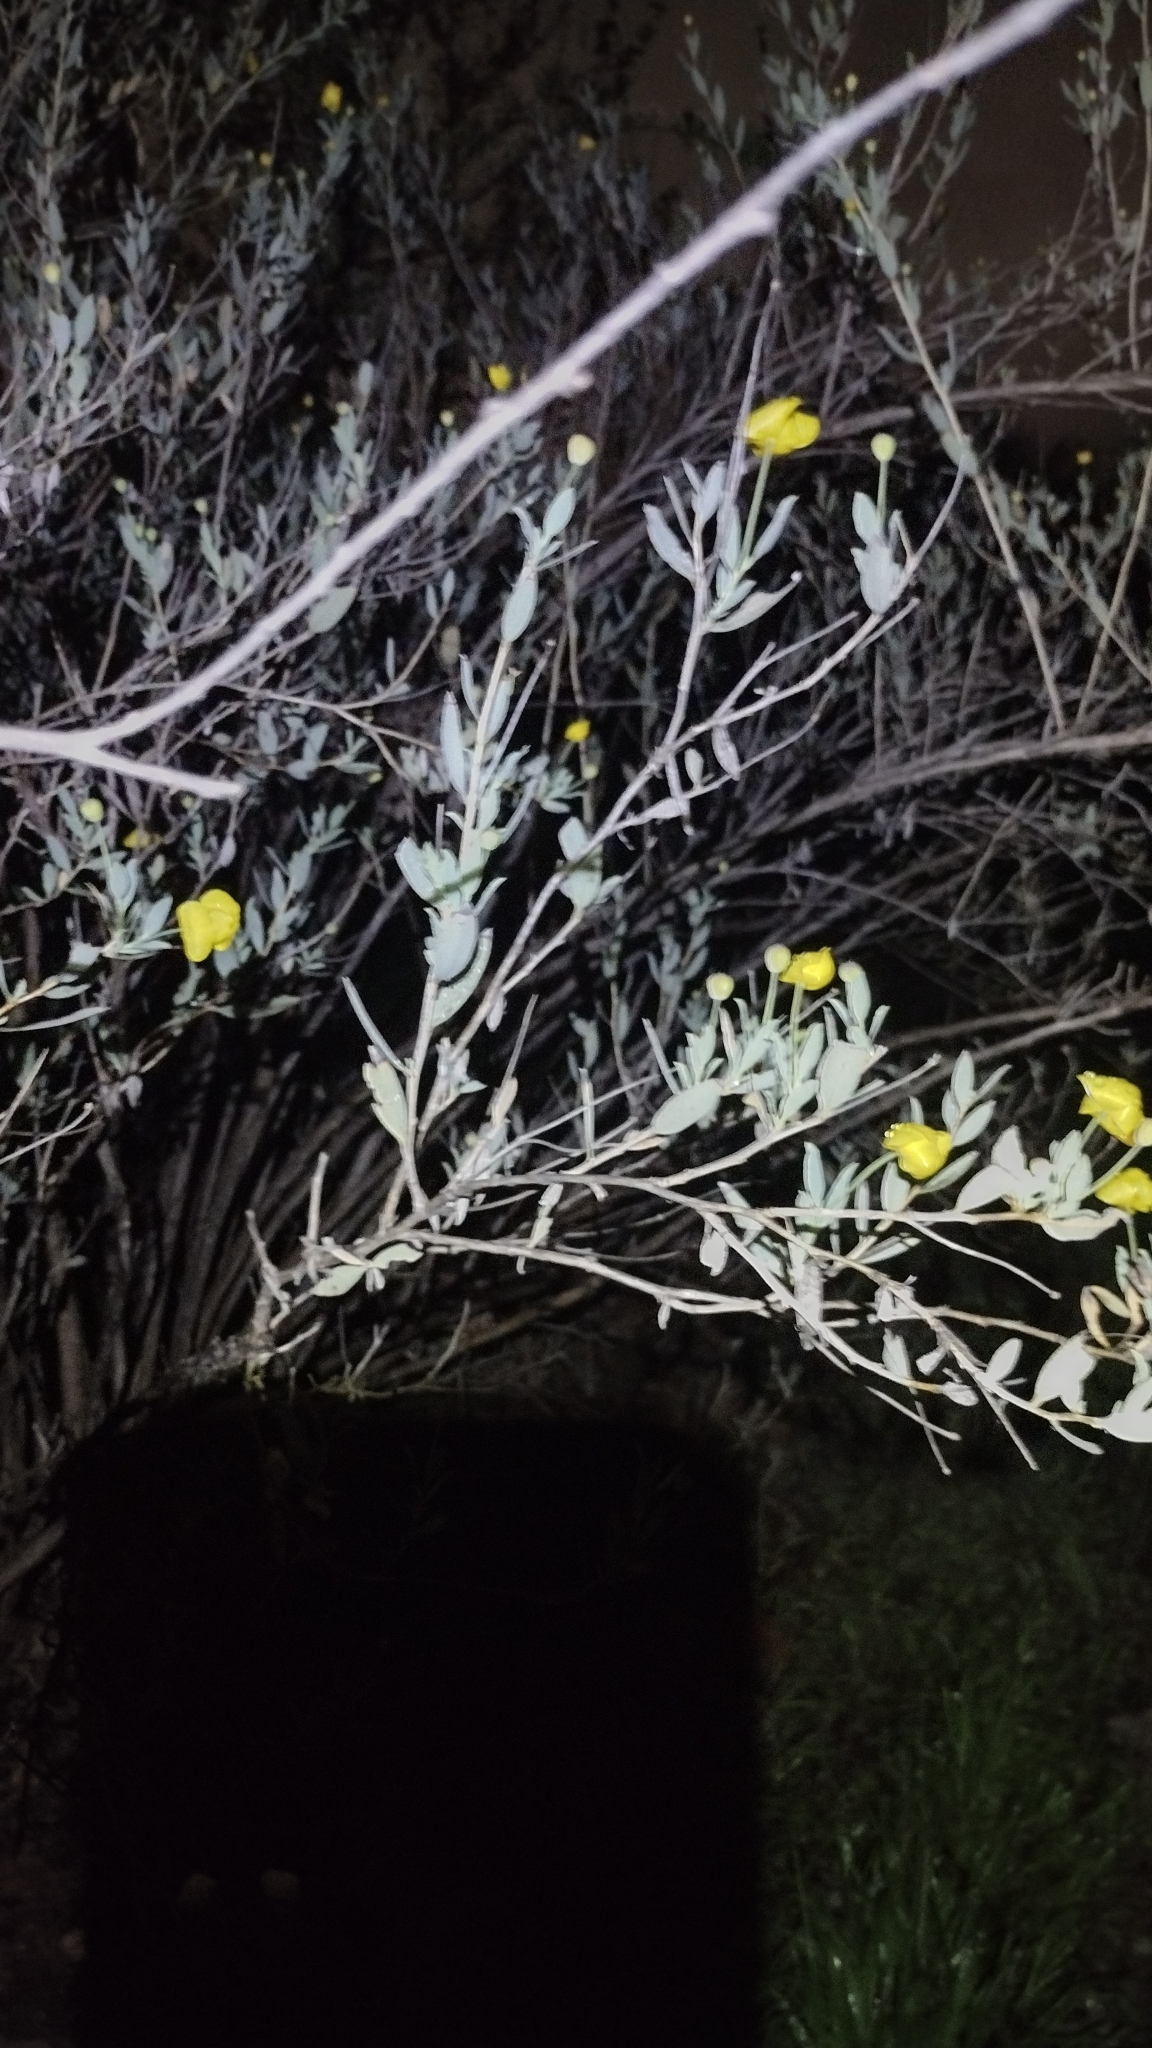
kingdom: Plantae
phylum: Tracheophyta
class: Magnoliopsida
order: Ranunculales
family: Papaveraceae
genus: Dendromecon
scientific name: Dendromecon rigida
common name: Tree poppy
